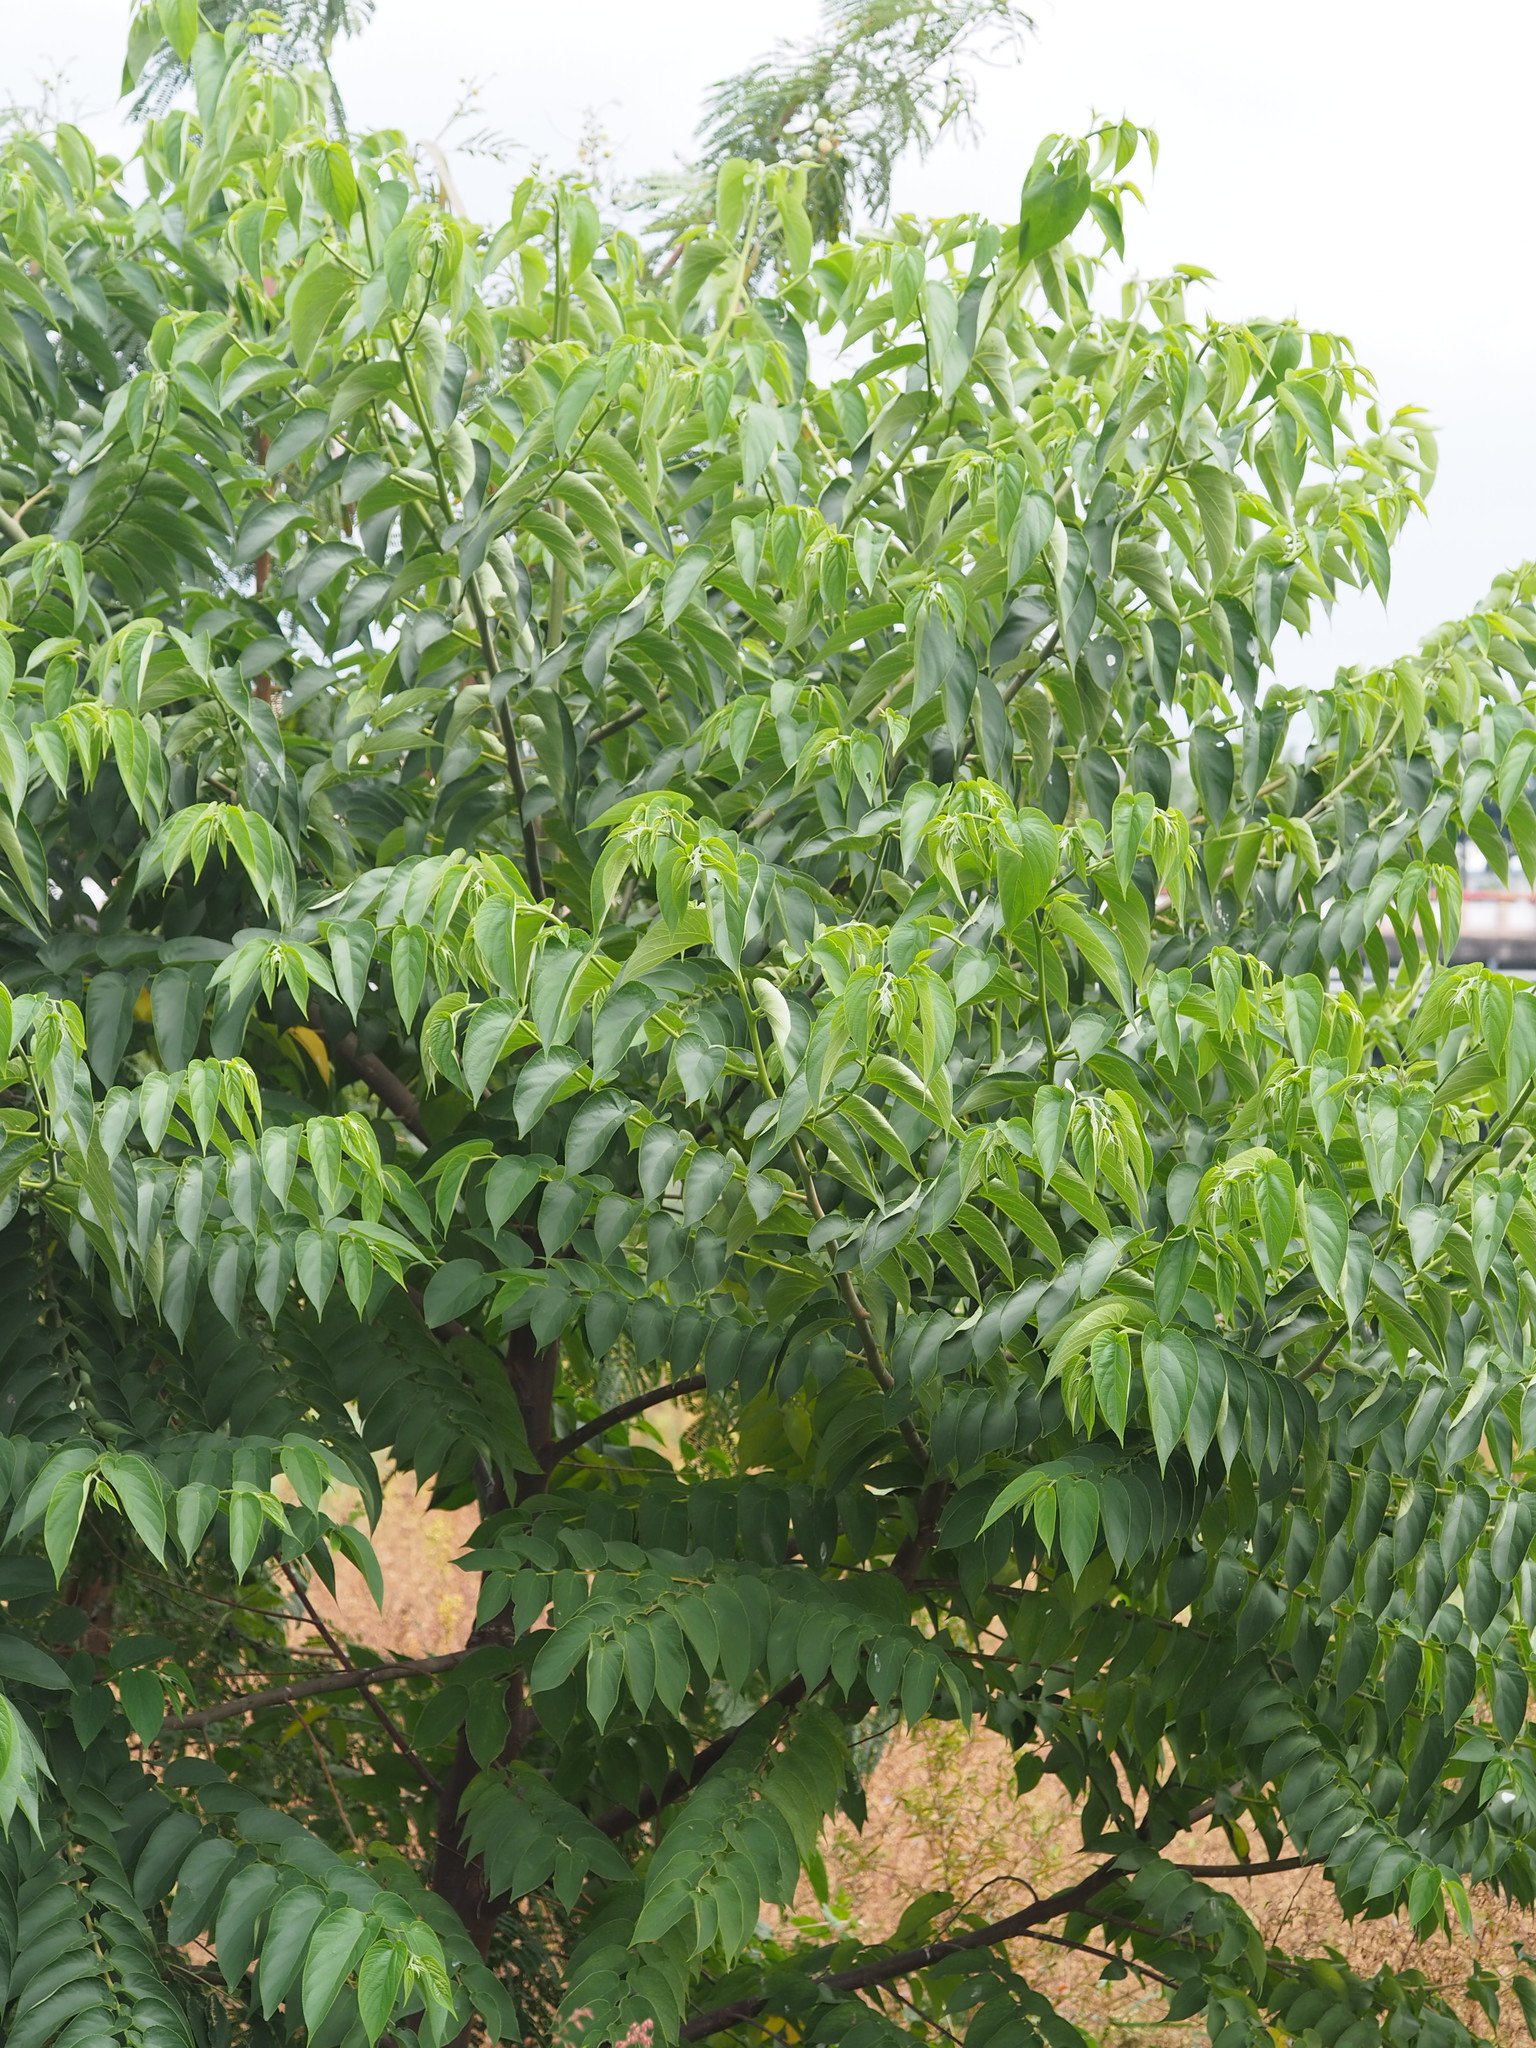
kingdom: Plantae
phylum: Tracheophyta
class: Magnoliopsida
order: Rosales
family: Cannabaceae
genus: Trema
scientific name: Trema orientale
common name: Indian charcoal tree
